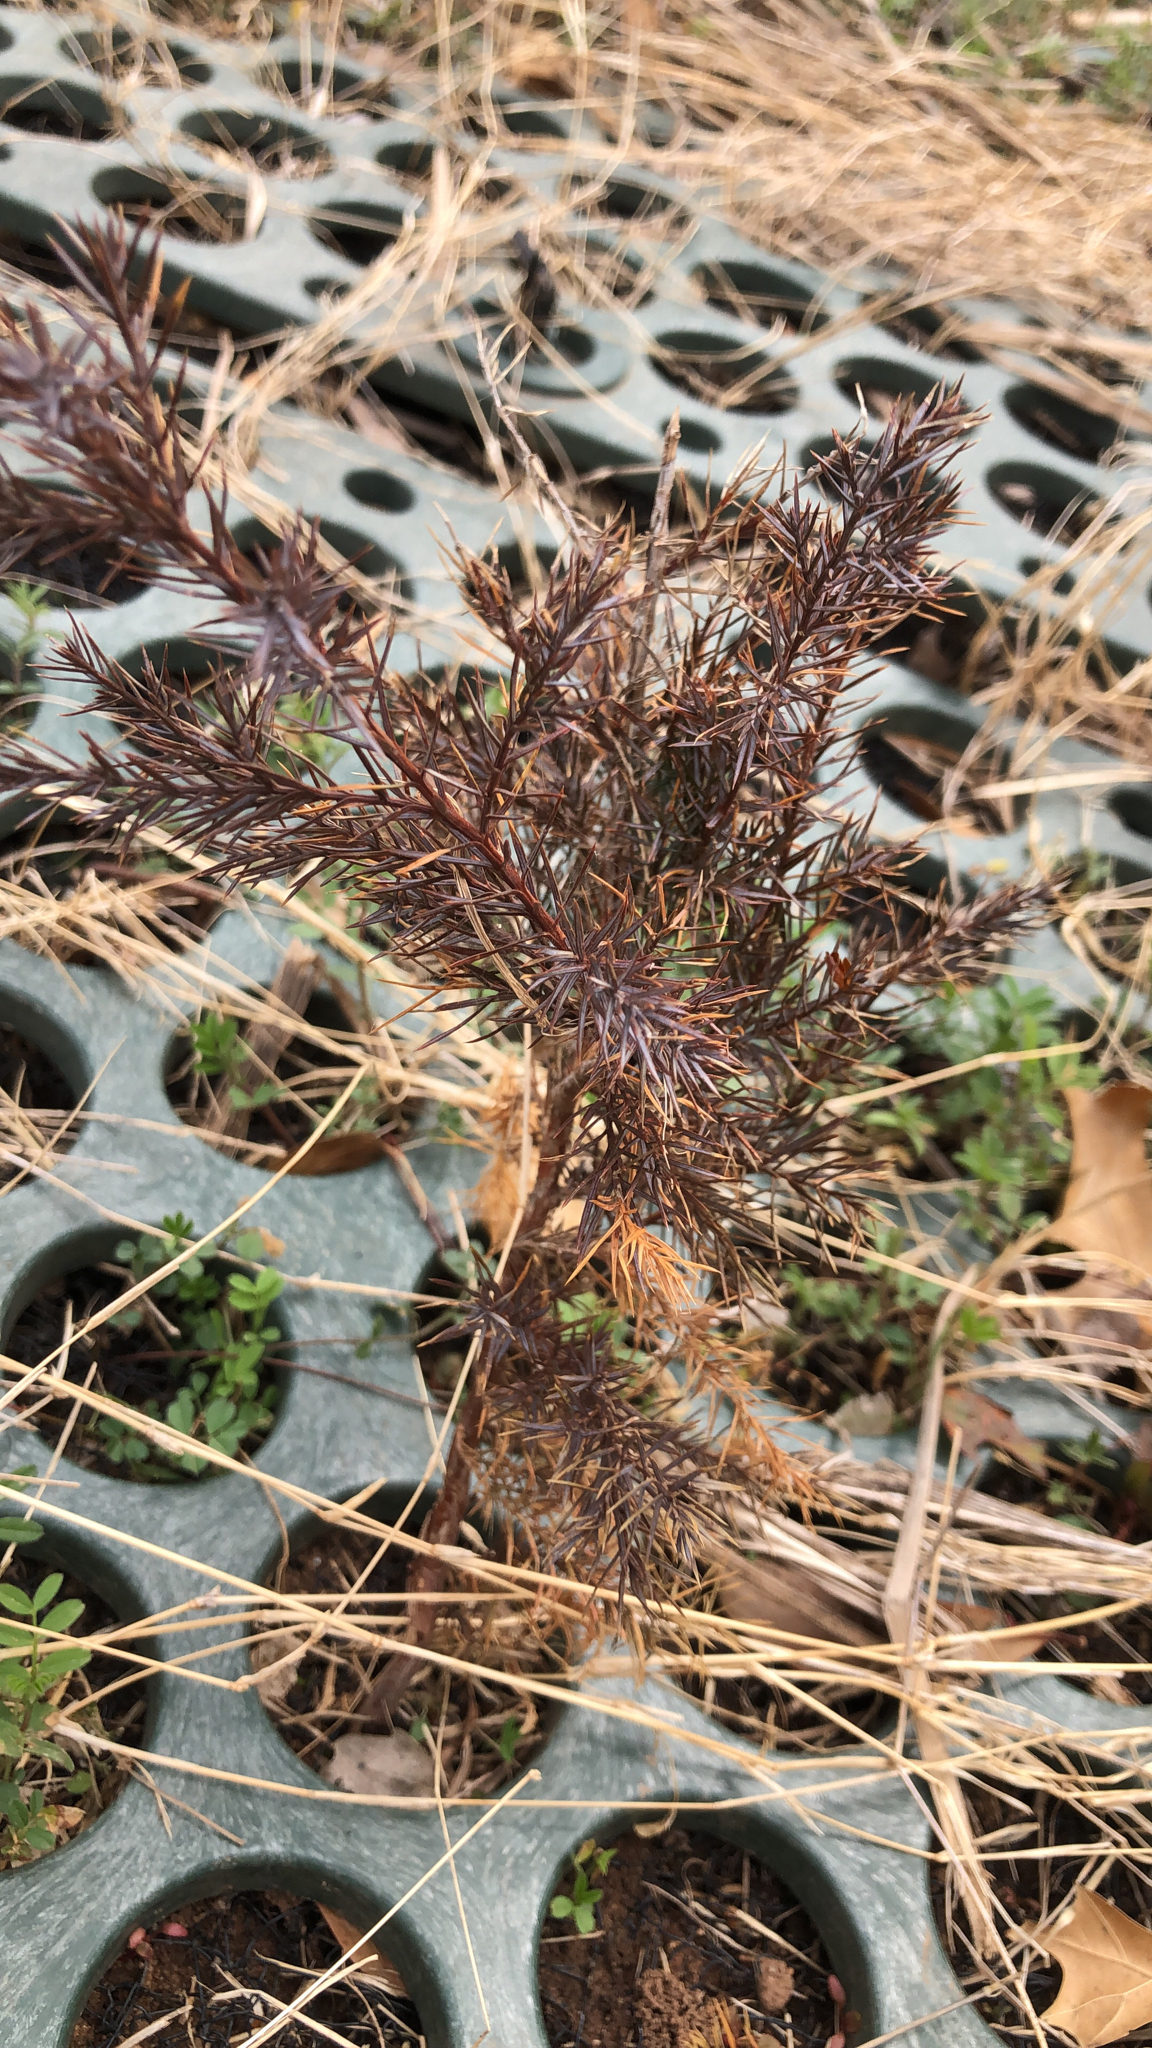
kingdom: Plantae
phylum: Tracheophyta
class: Pinopsida
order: Pinales
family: Cupressaceae
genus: Juniperus
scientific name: Juniperus virginiana
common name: Red juniper
